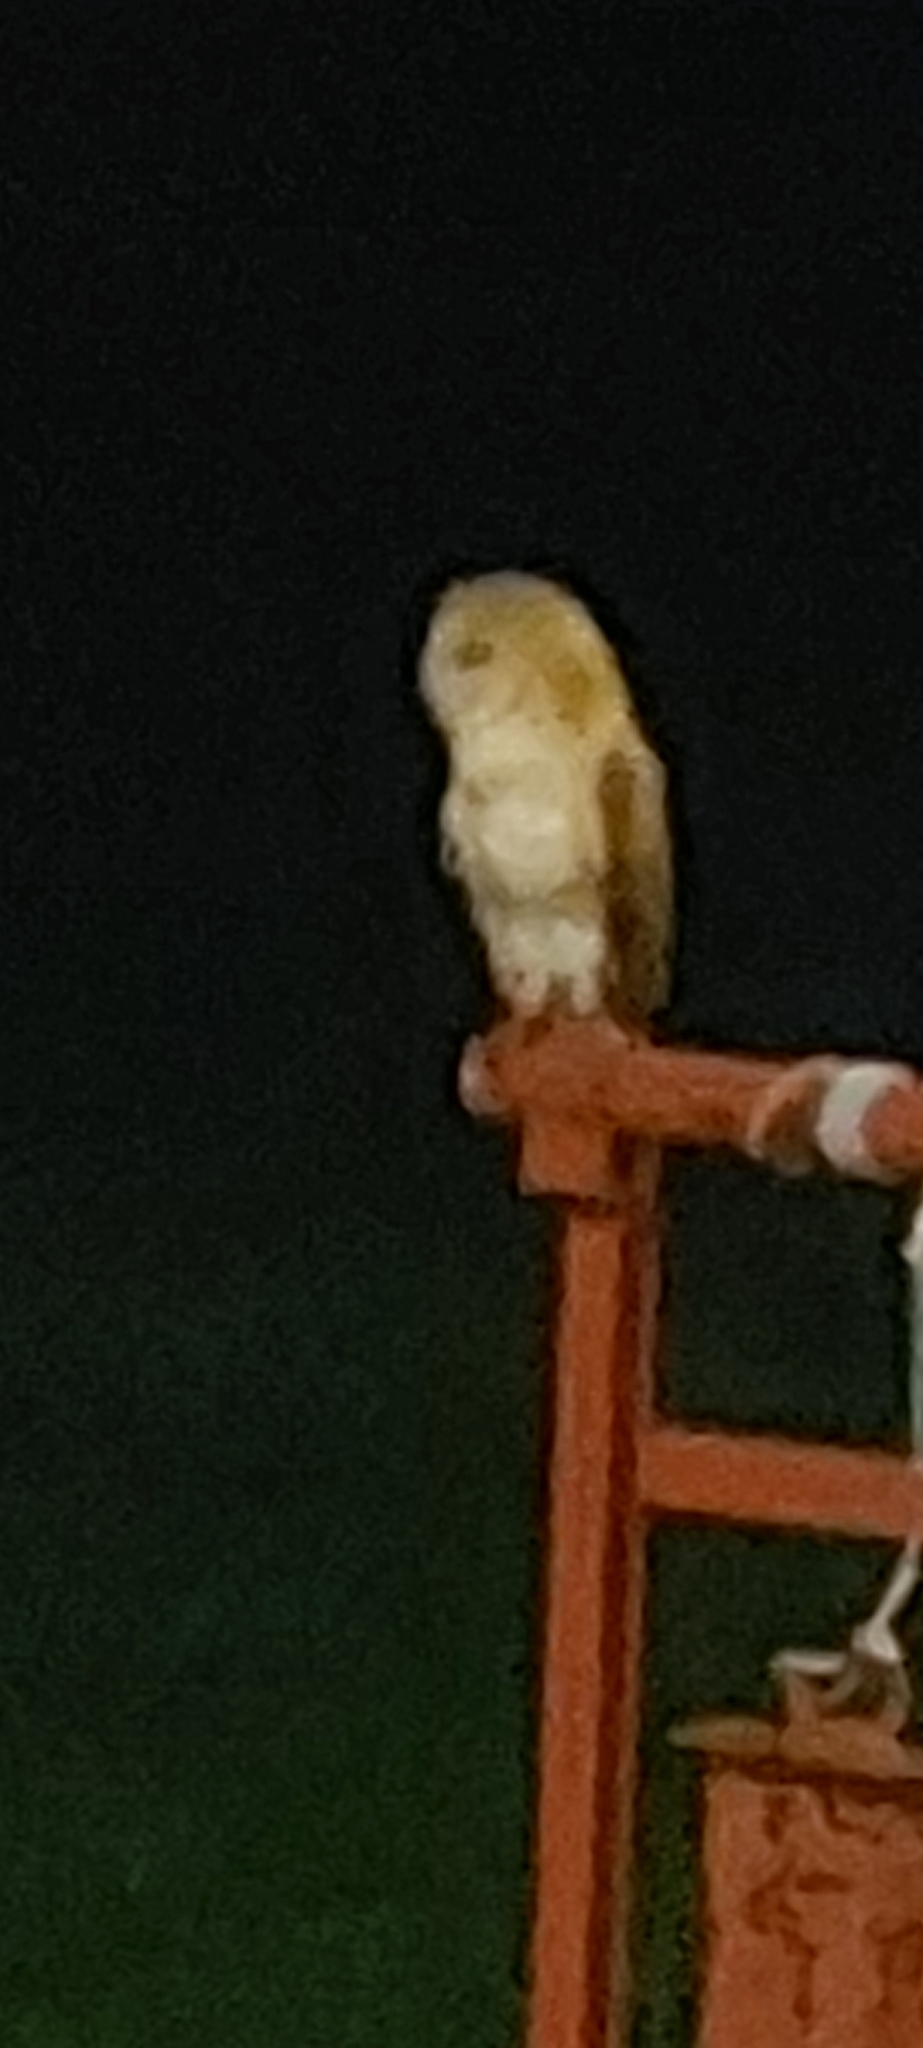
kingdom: Animalia
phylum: Chordata
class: Aves
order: Strigiformes
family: Tytonidae
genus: Tyto
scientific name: Tyto alba
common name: Barn owl
